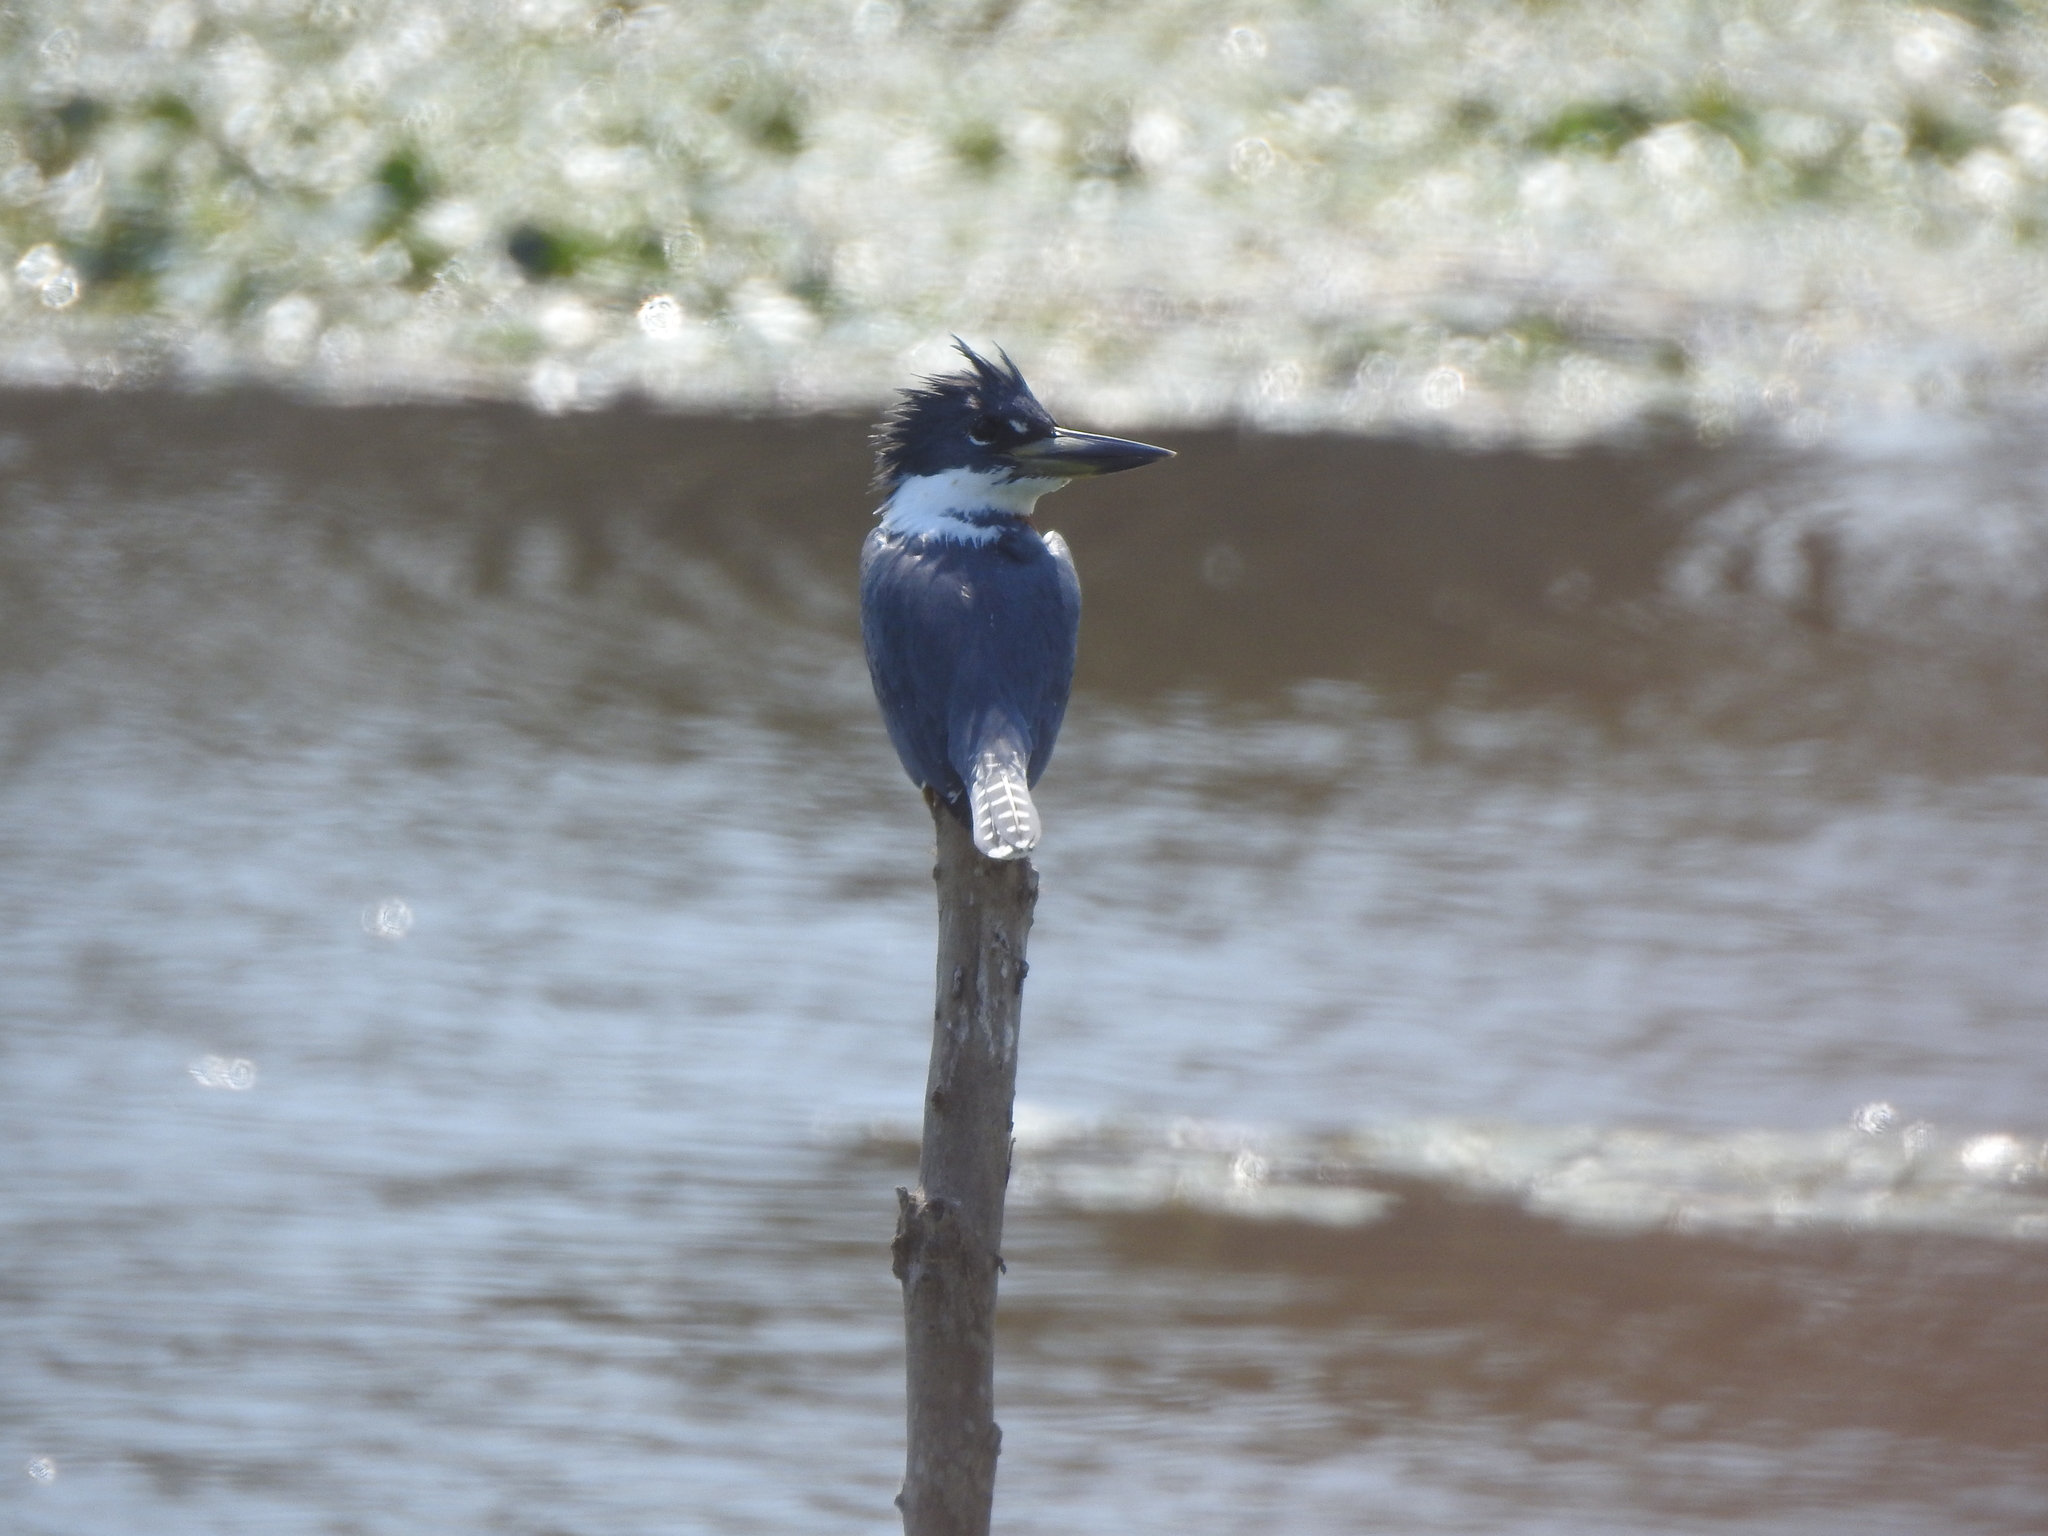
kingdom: Animalia
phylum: Chordata
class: Aves
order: Coraciiformes
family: Alcedinidae
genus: Megaceryle
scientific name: Megaceryle torquata
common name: Ringed kingfisher
